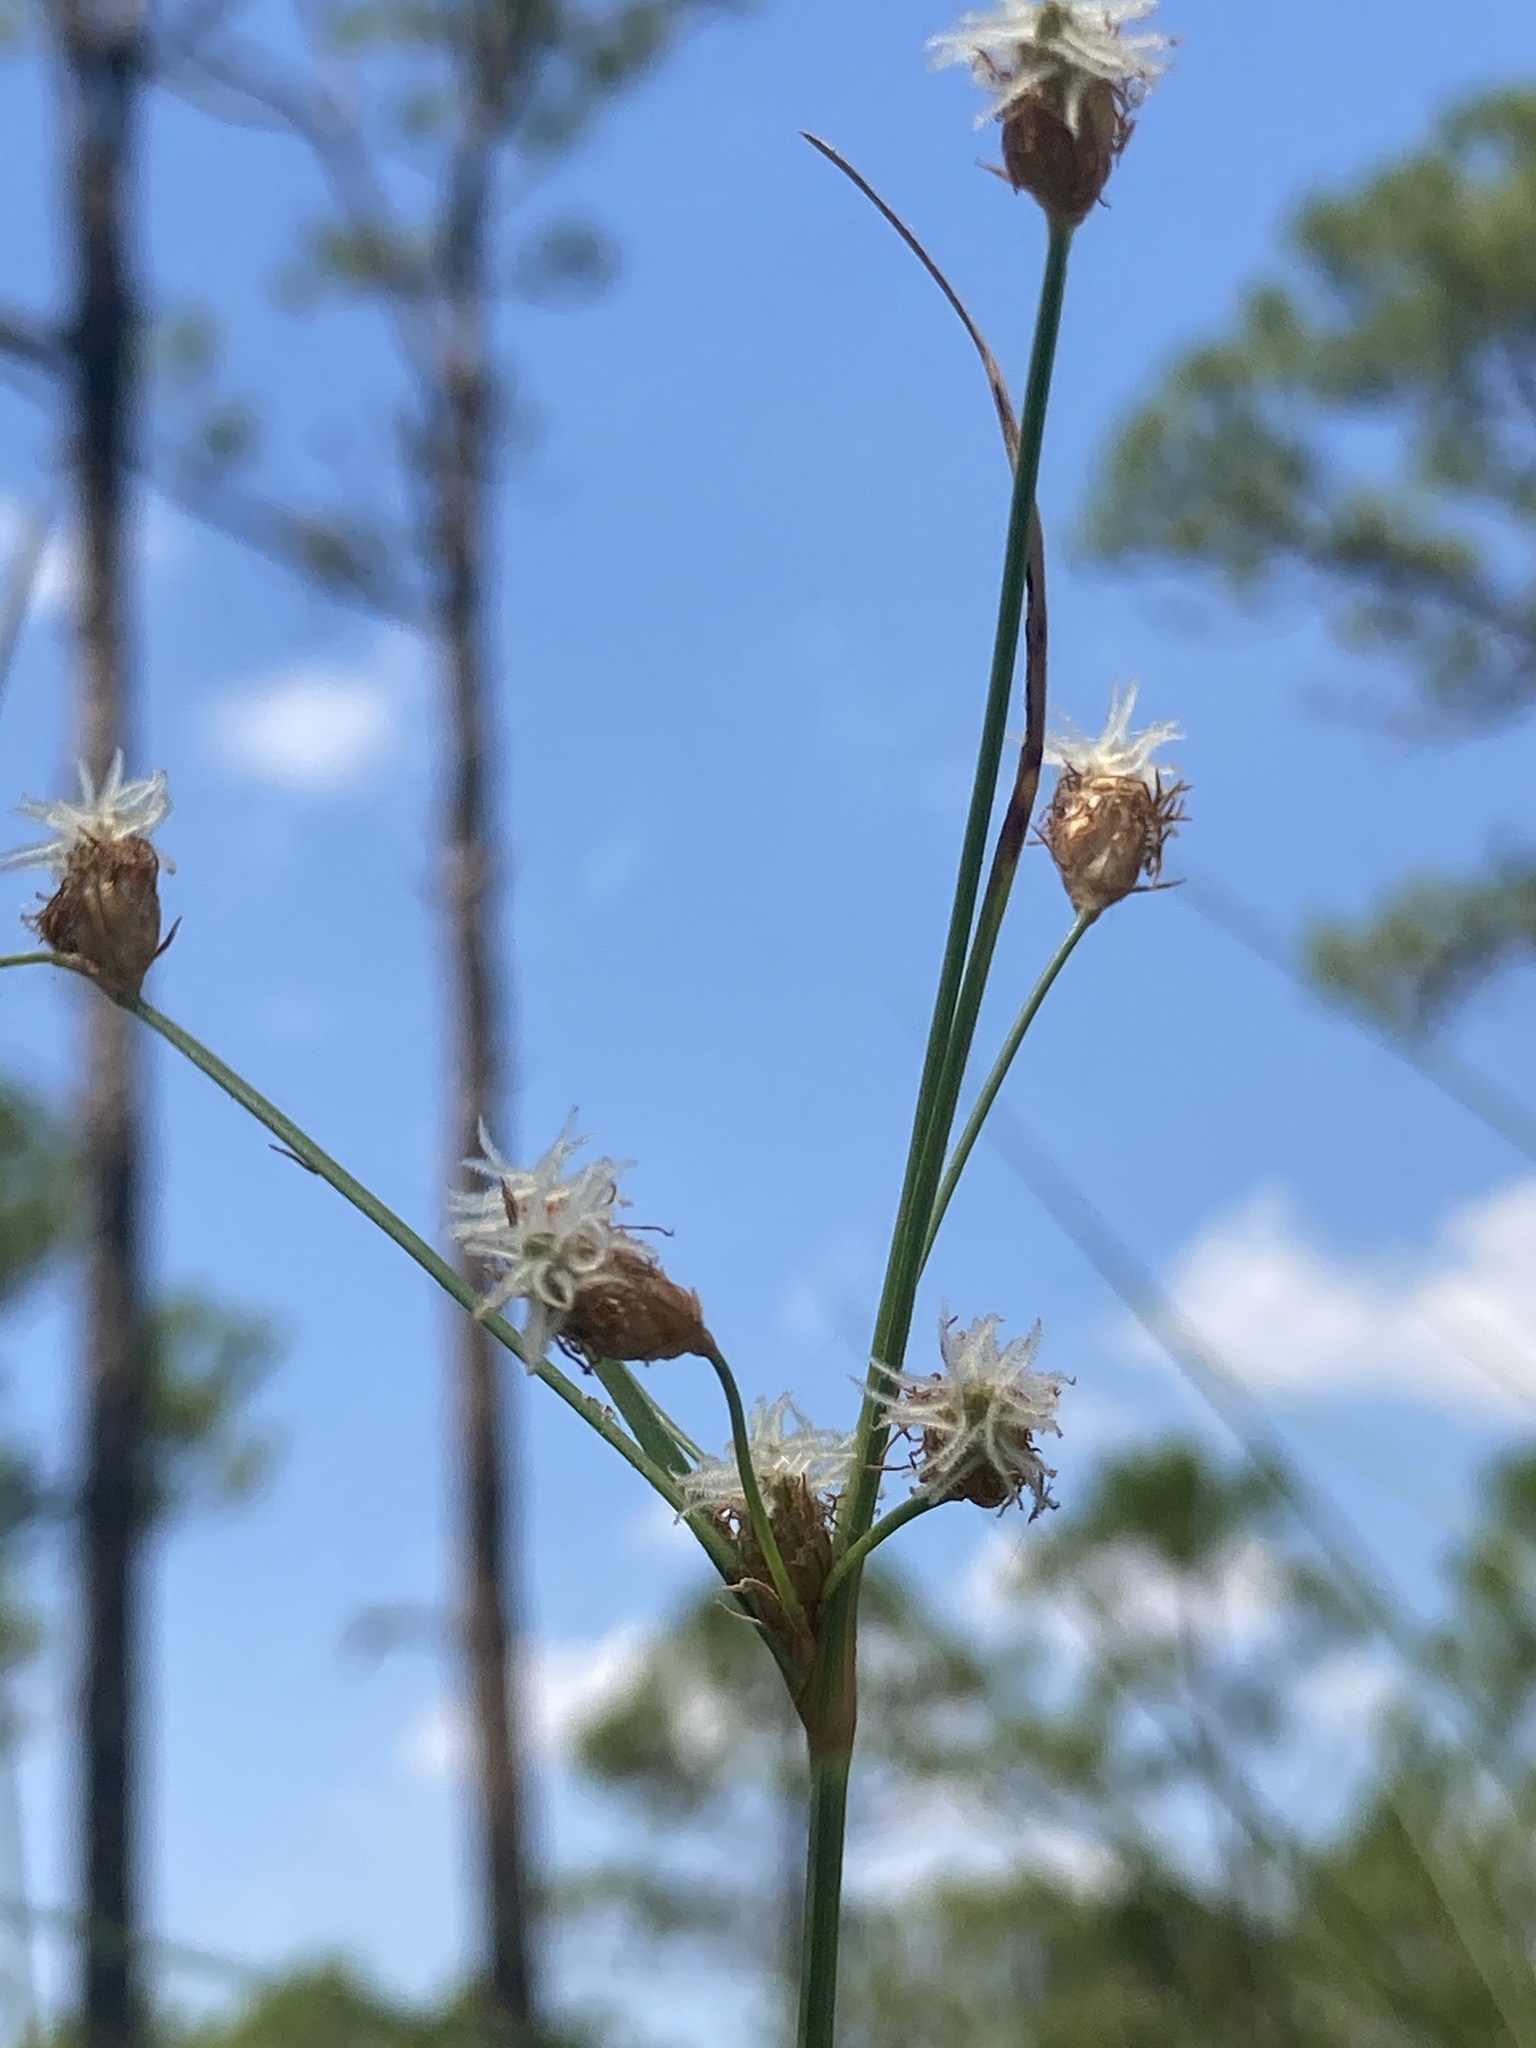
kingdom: Plantae
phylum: Tracheophyta
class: Liliopsida
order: Poales
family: Cyperaceae
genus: Fimbristylis
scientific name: Fimbristylis puberula
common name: Hairy fimbristylis
